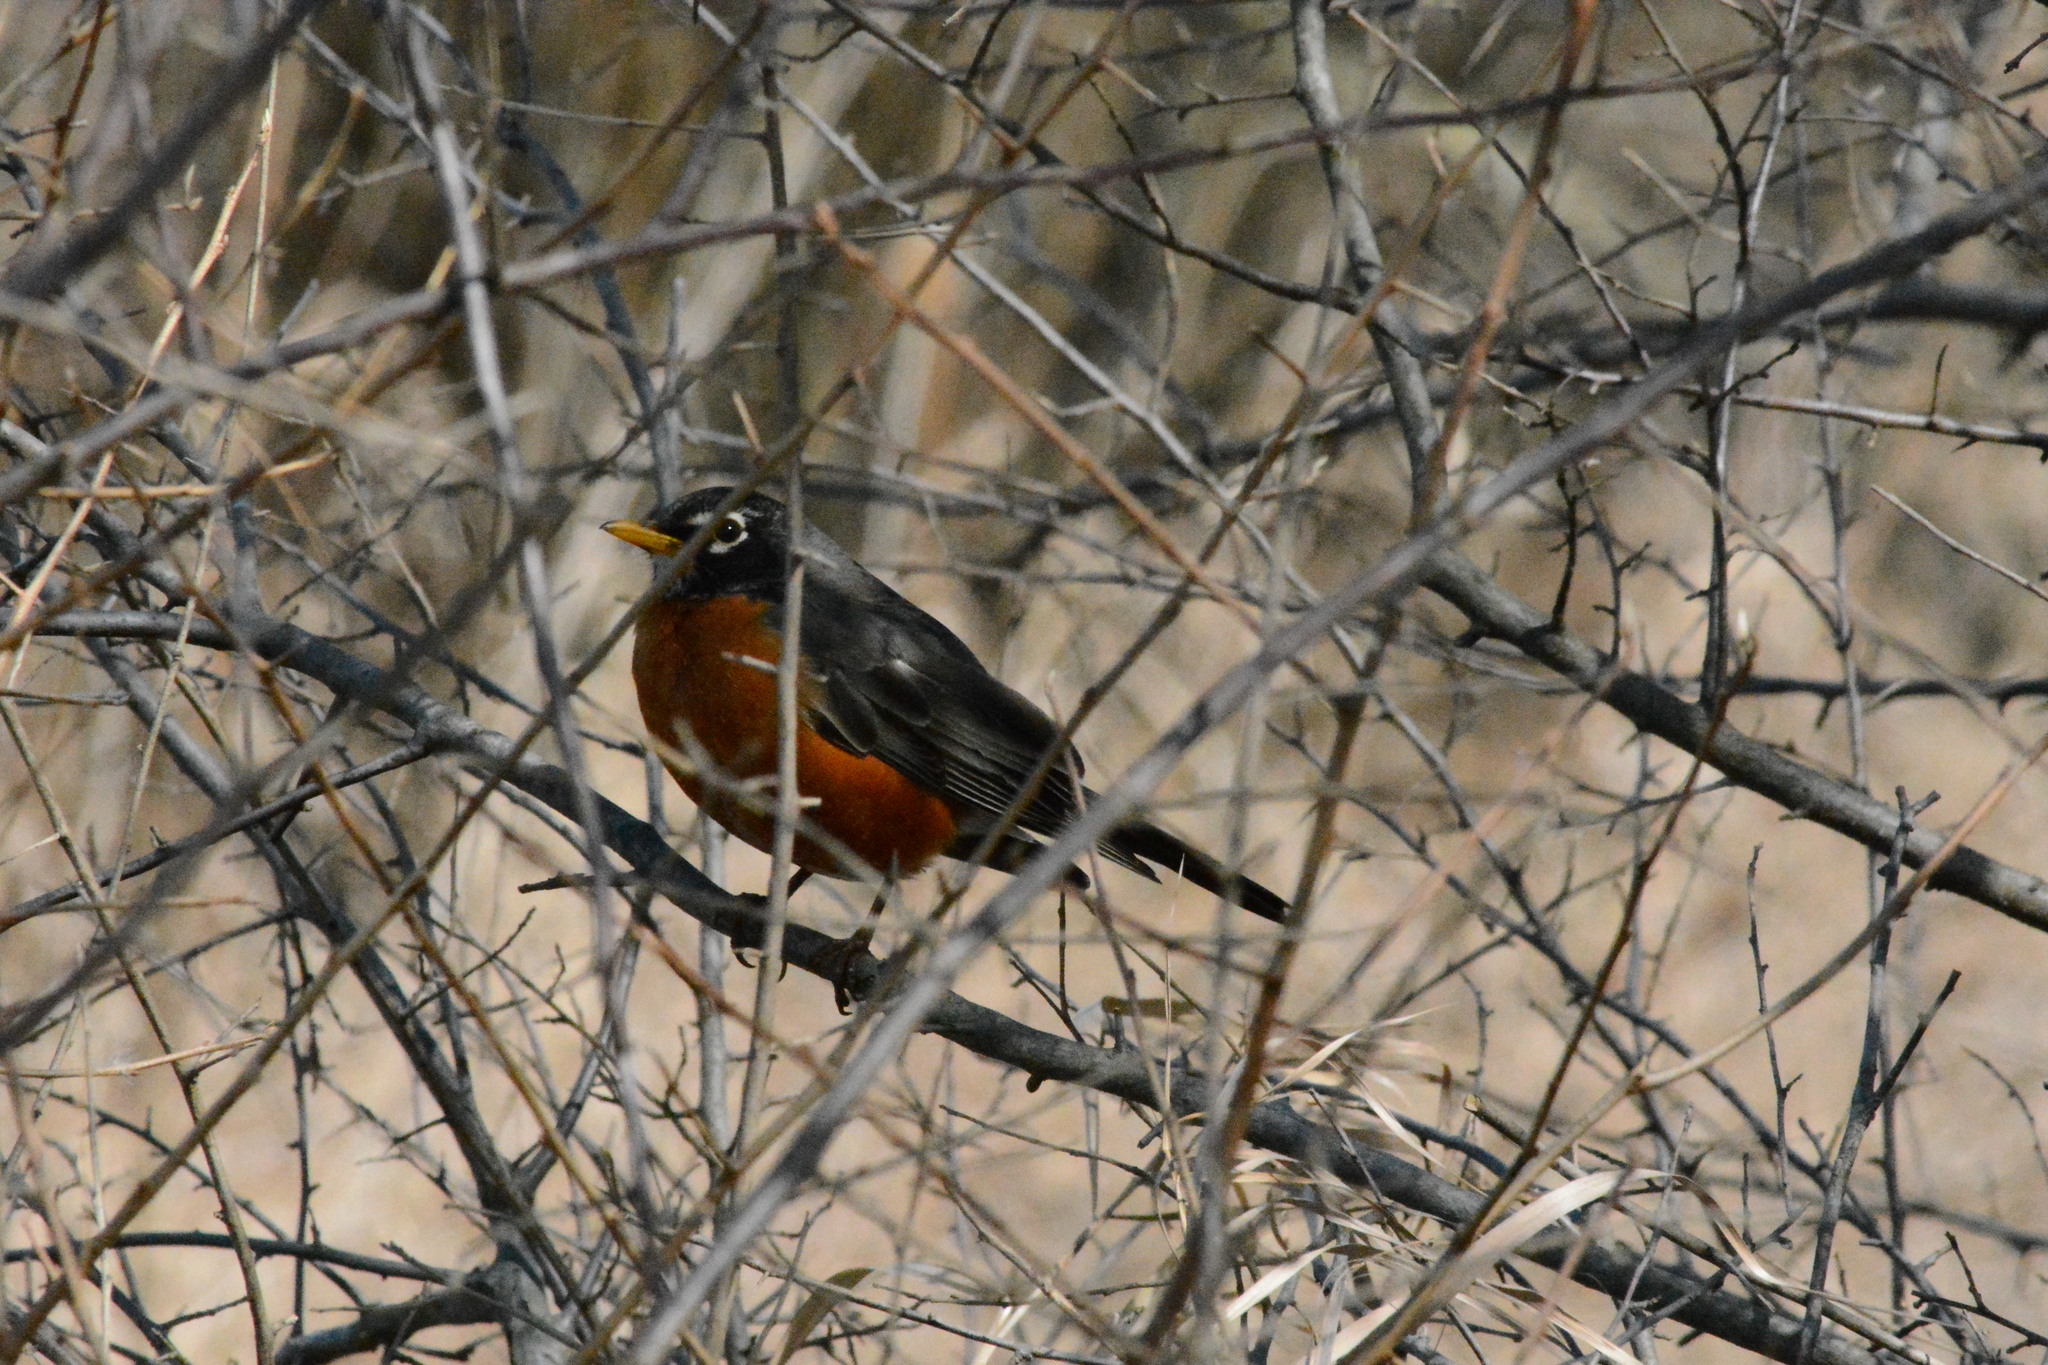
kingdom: Animalia
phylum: Chordata
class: Aves
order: Passeriformes
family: Turdidae
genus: Turdus
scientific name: Turdus migratorius
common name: American robin
